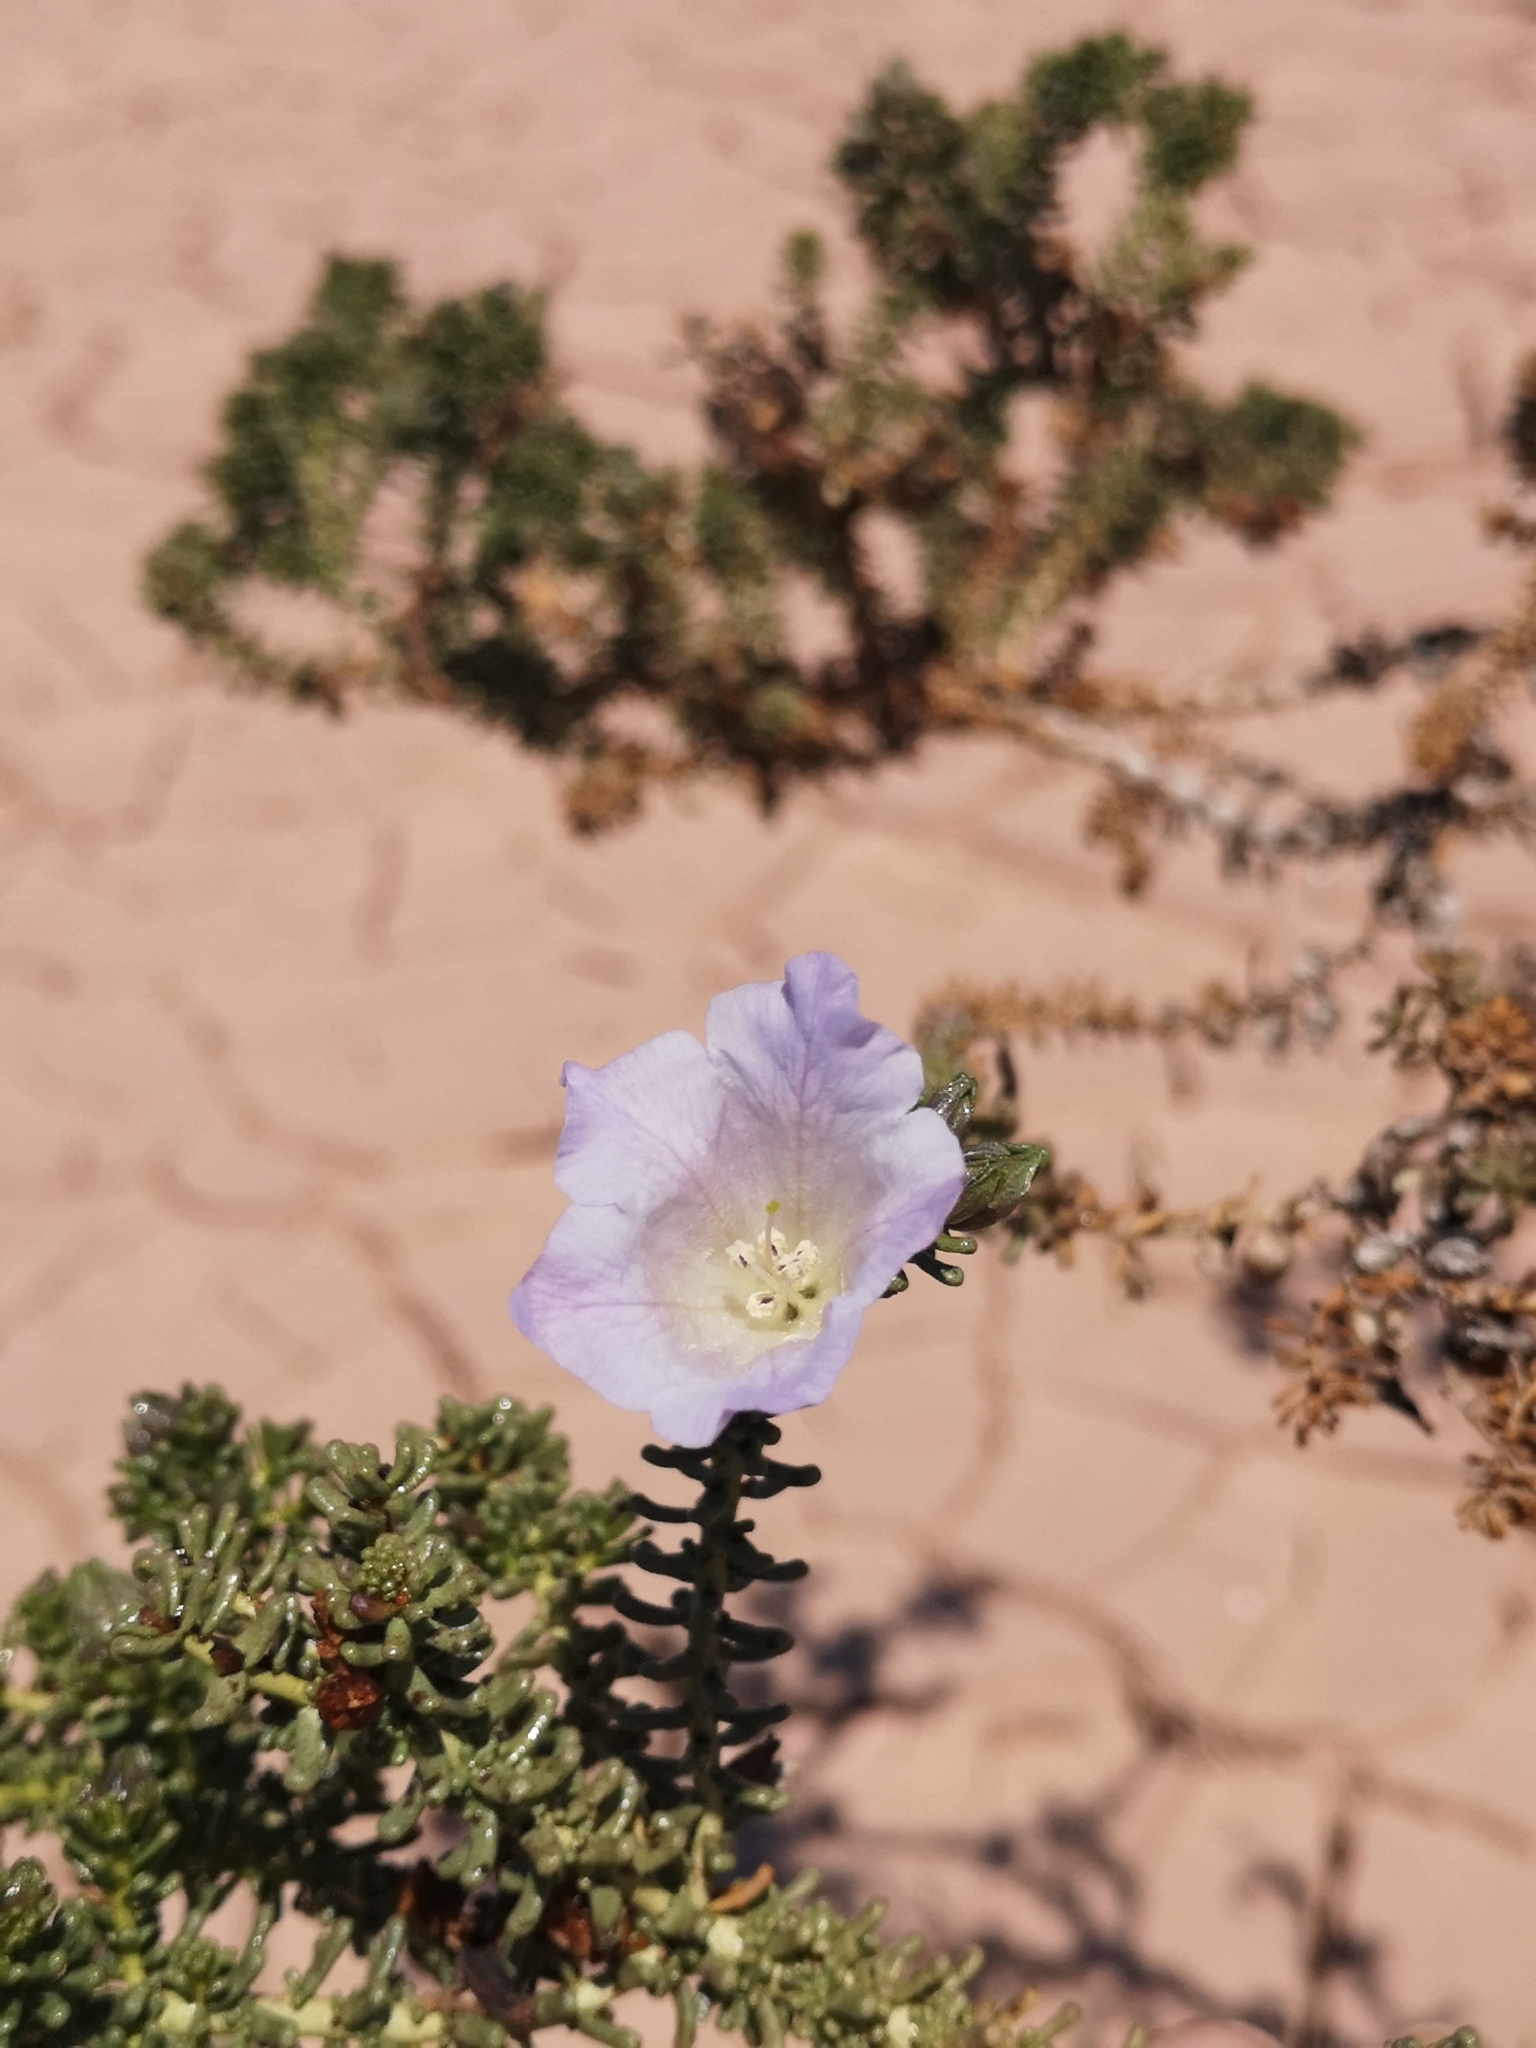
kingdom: Plantae
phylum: Tracheophyta
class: Magnoliopsida
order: Solanales
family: Solanaceae
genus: Nolana
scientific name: Nolana patula
